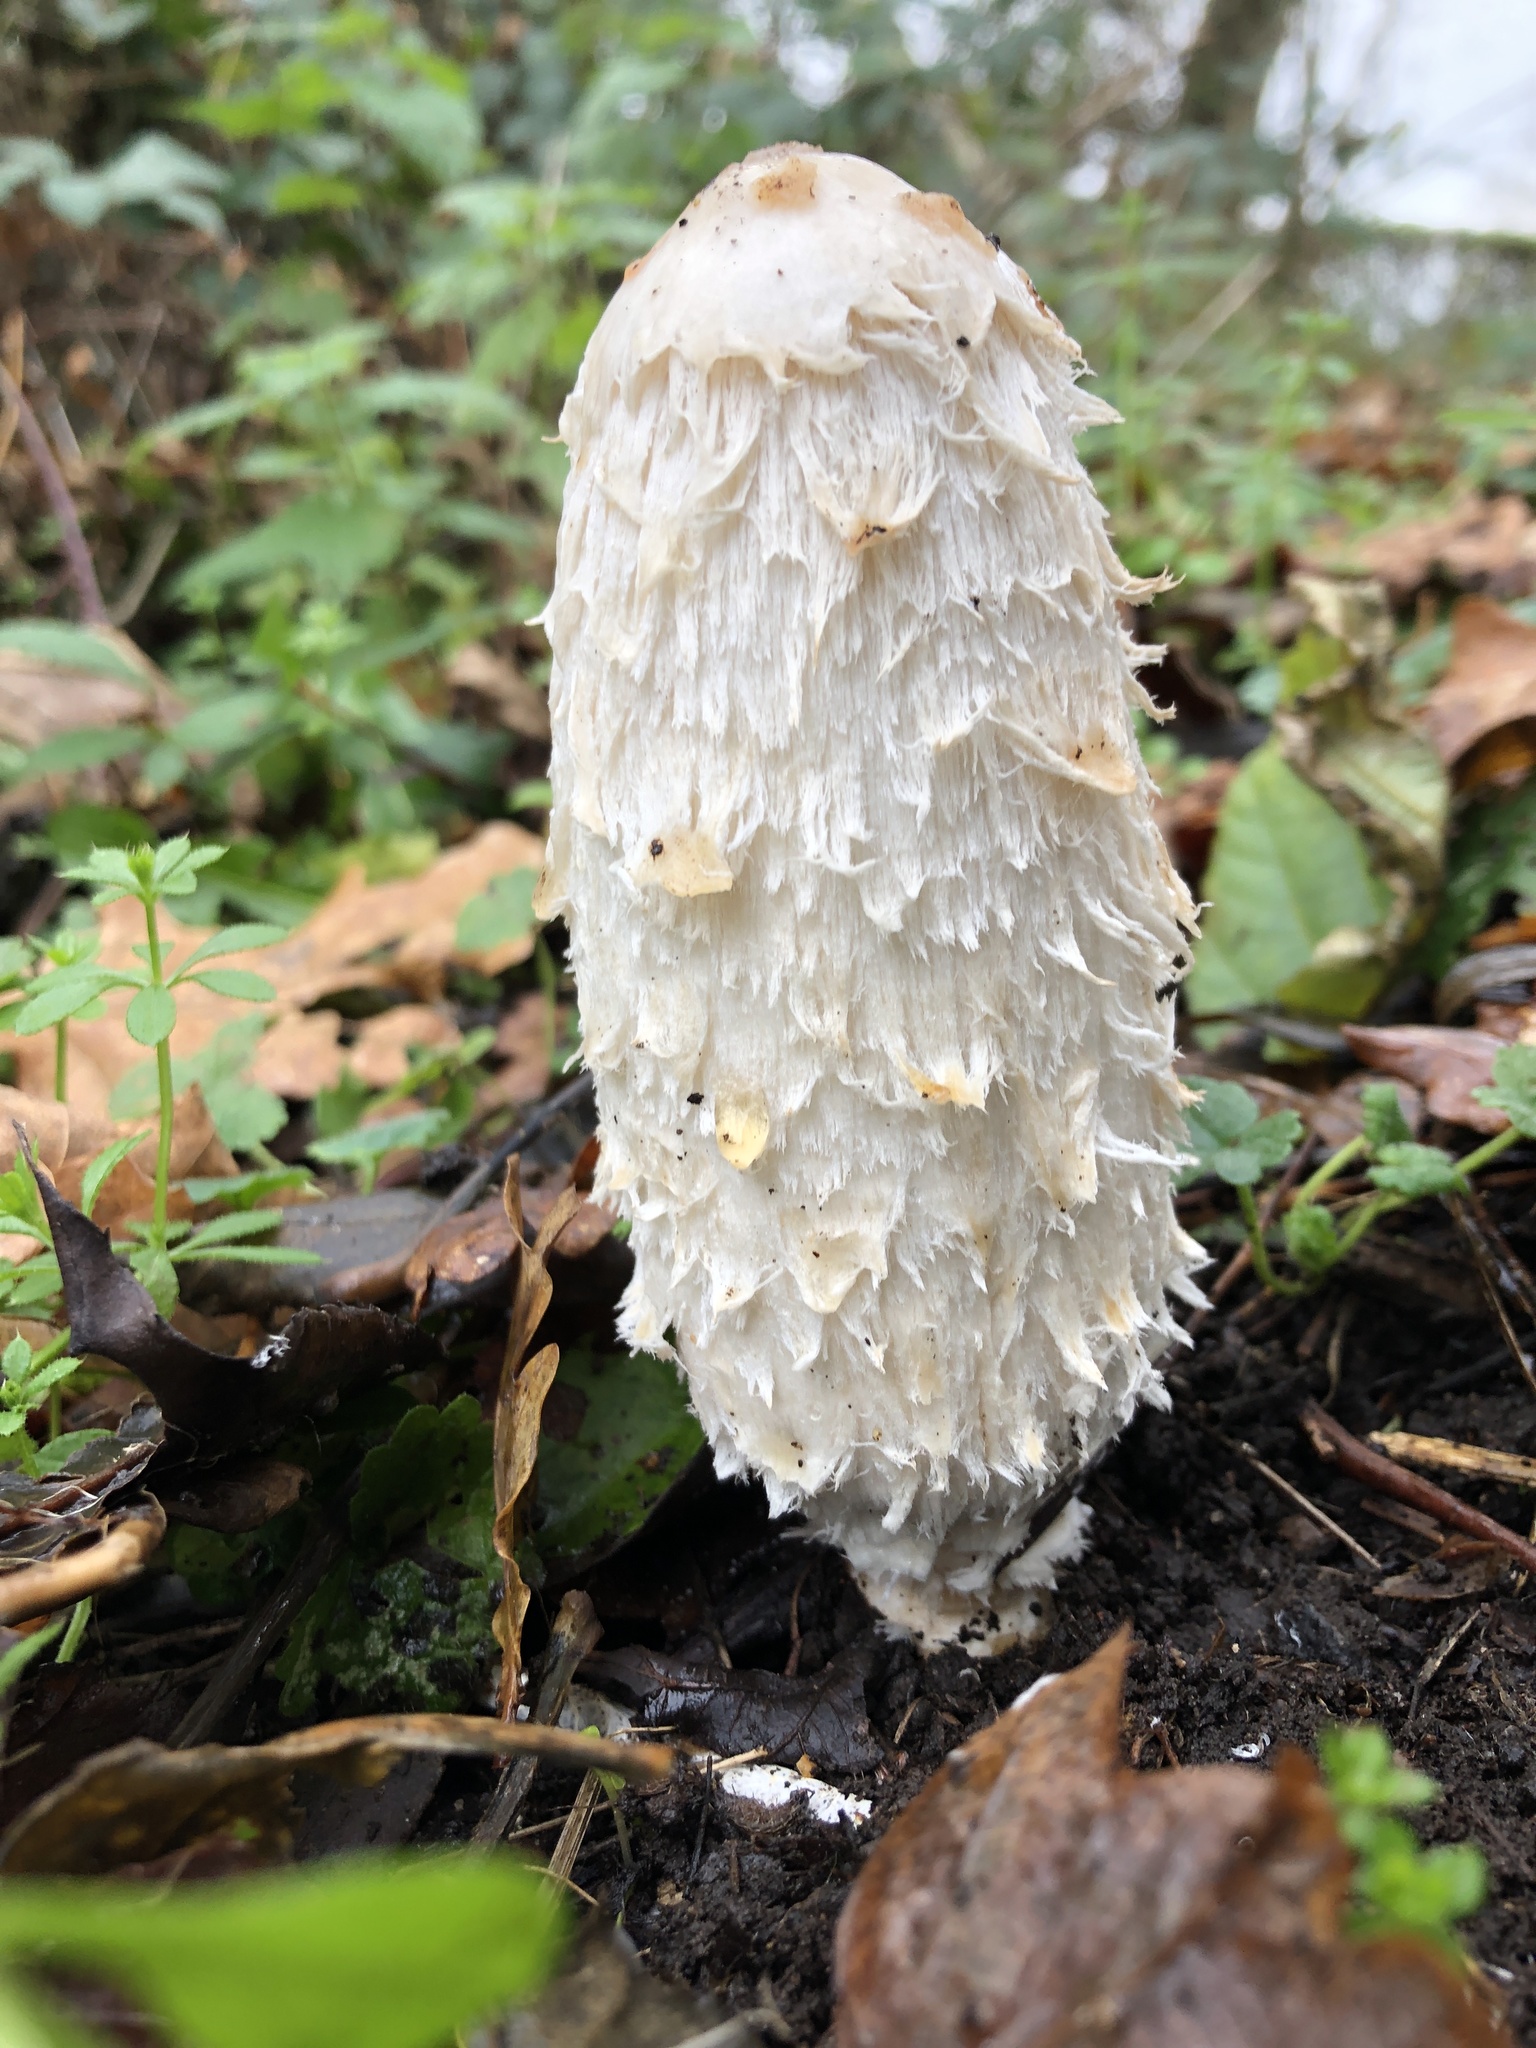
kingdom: Fungi
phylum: Basidiomycota
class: Agaricomycetes
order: Agaricales
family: Agaricaceae
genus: Coprinus
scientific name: Coprinus comatus
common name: Lawyer's wig
